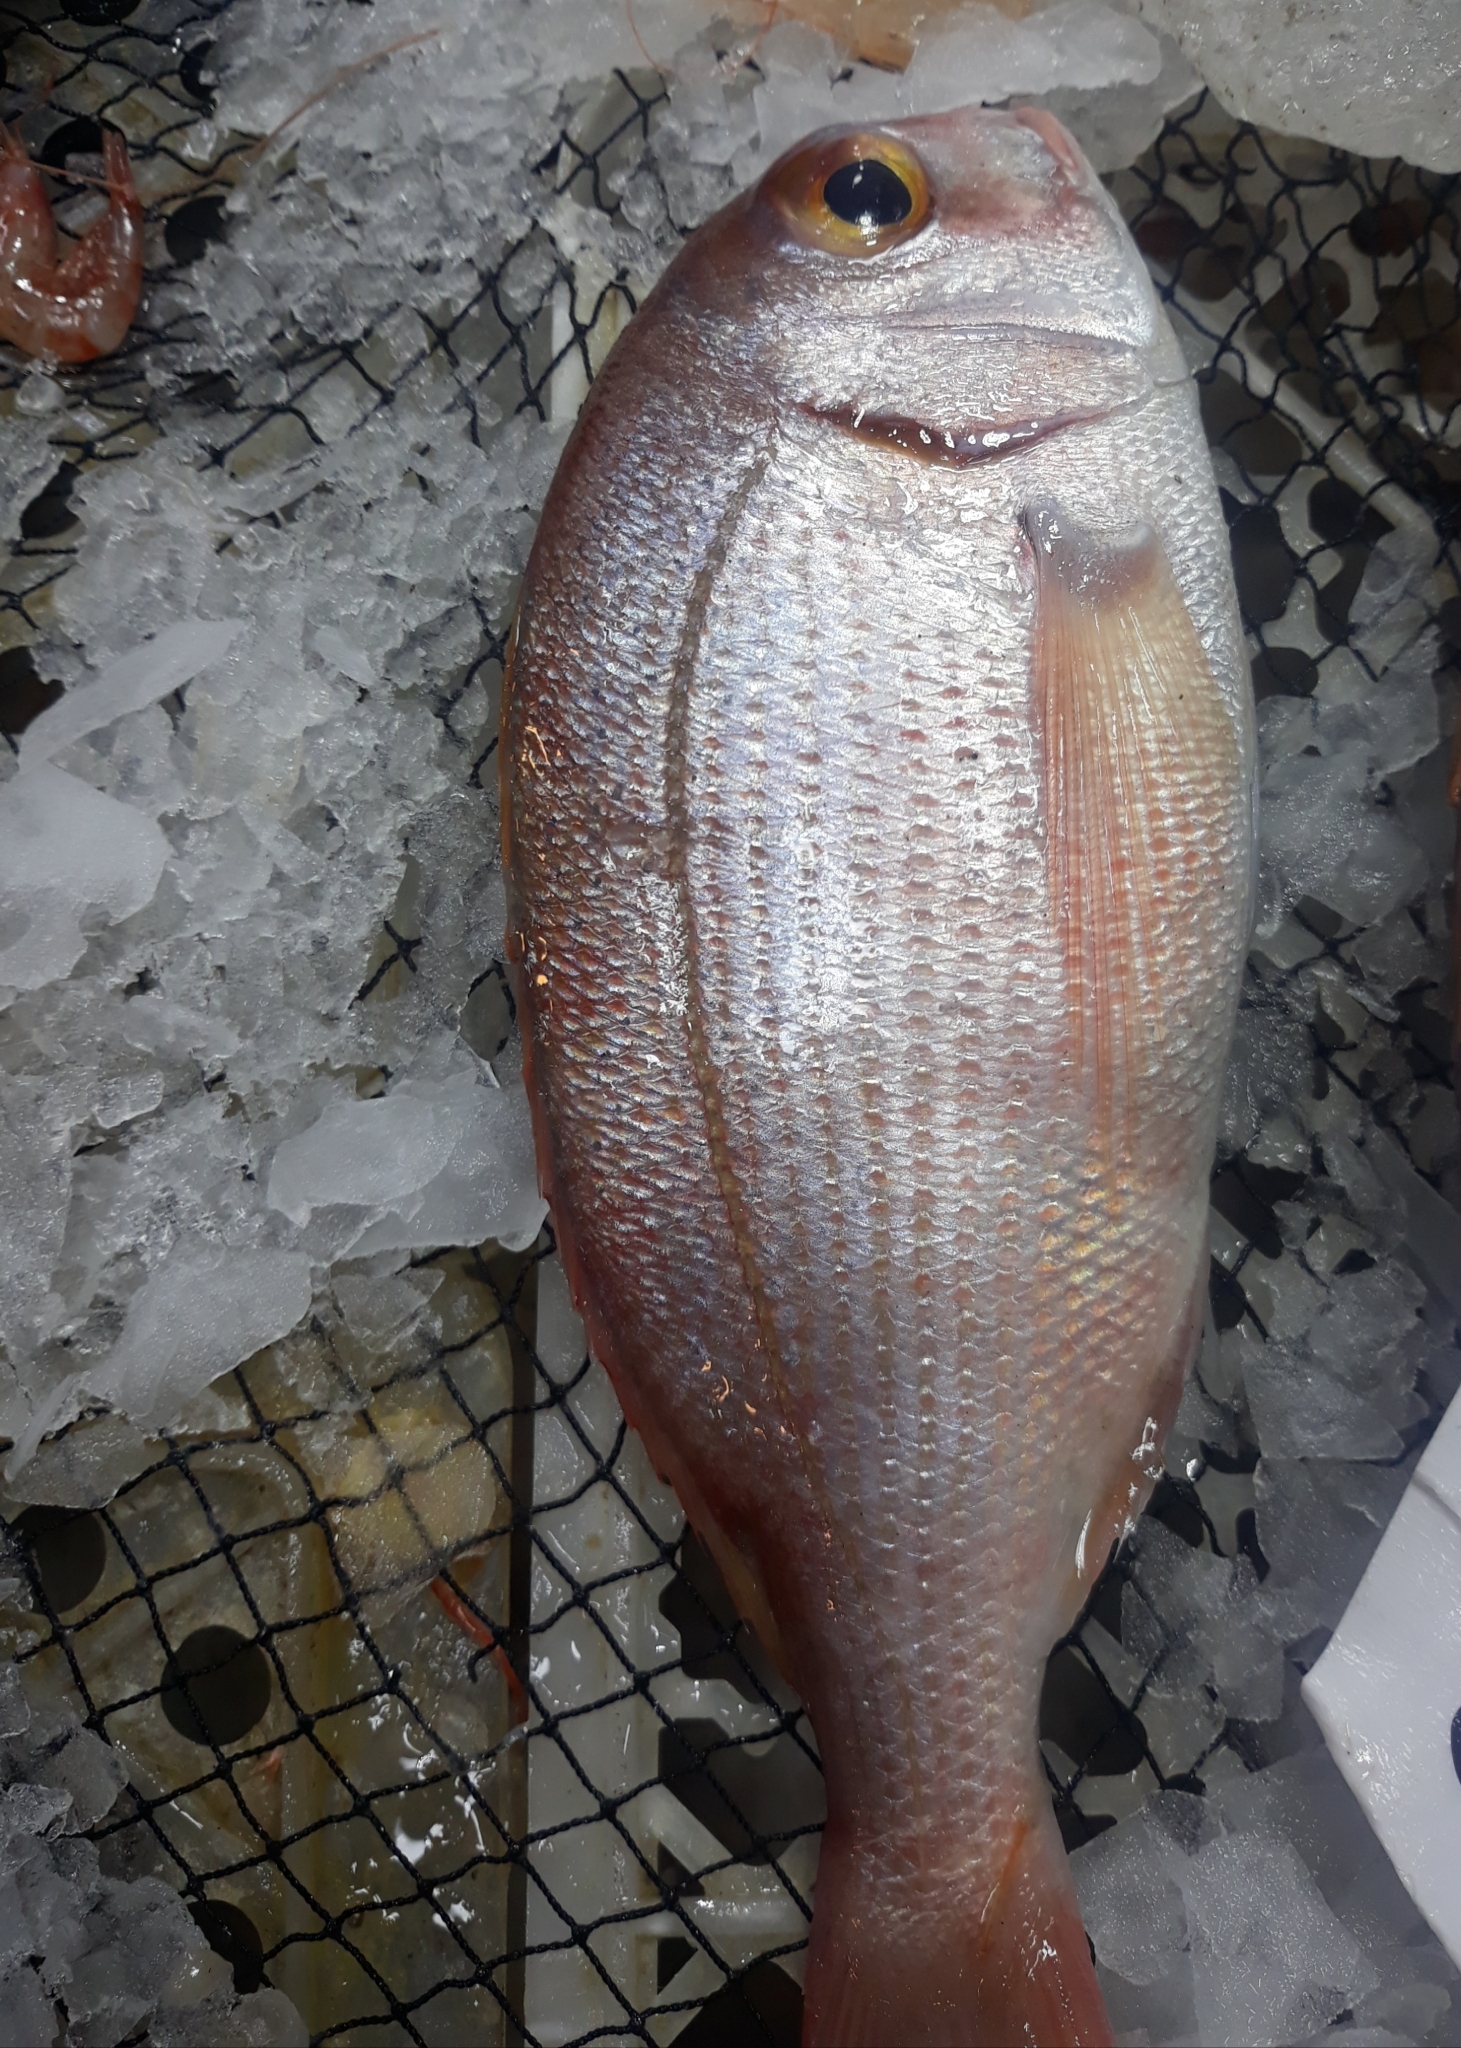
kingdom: Animalia
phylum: Chordata
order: Perciformes
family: Sparidae
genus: Pagrus
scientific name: Pagrus pagrus
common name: Red porgy
